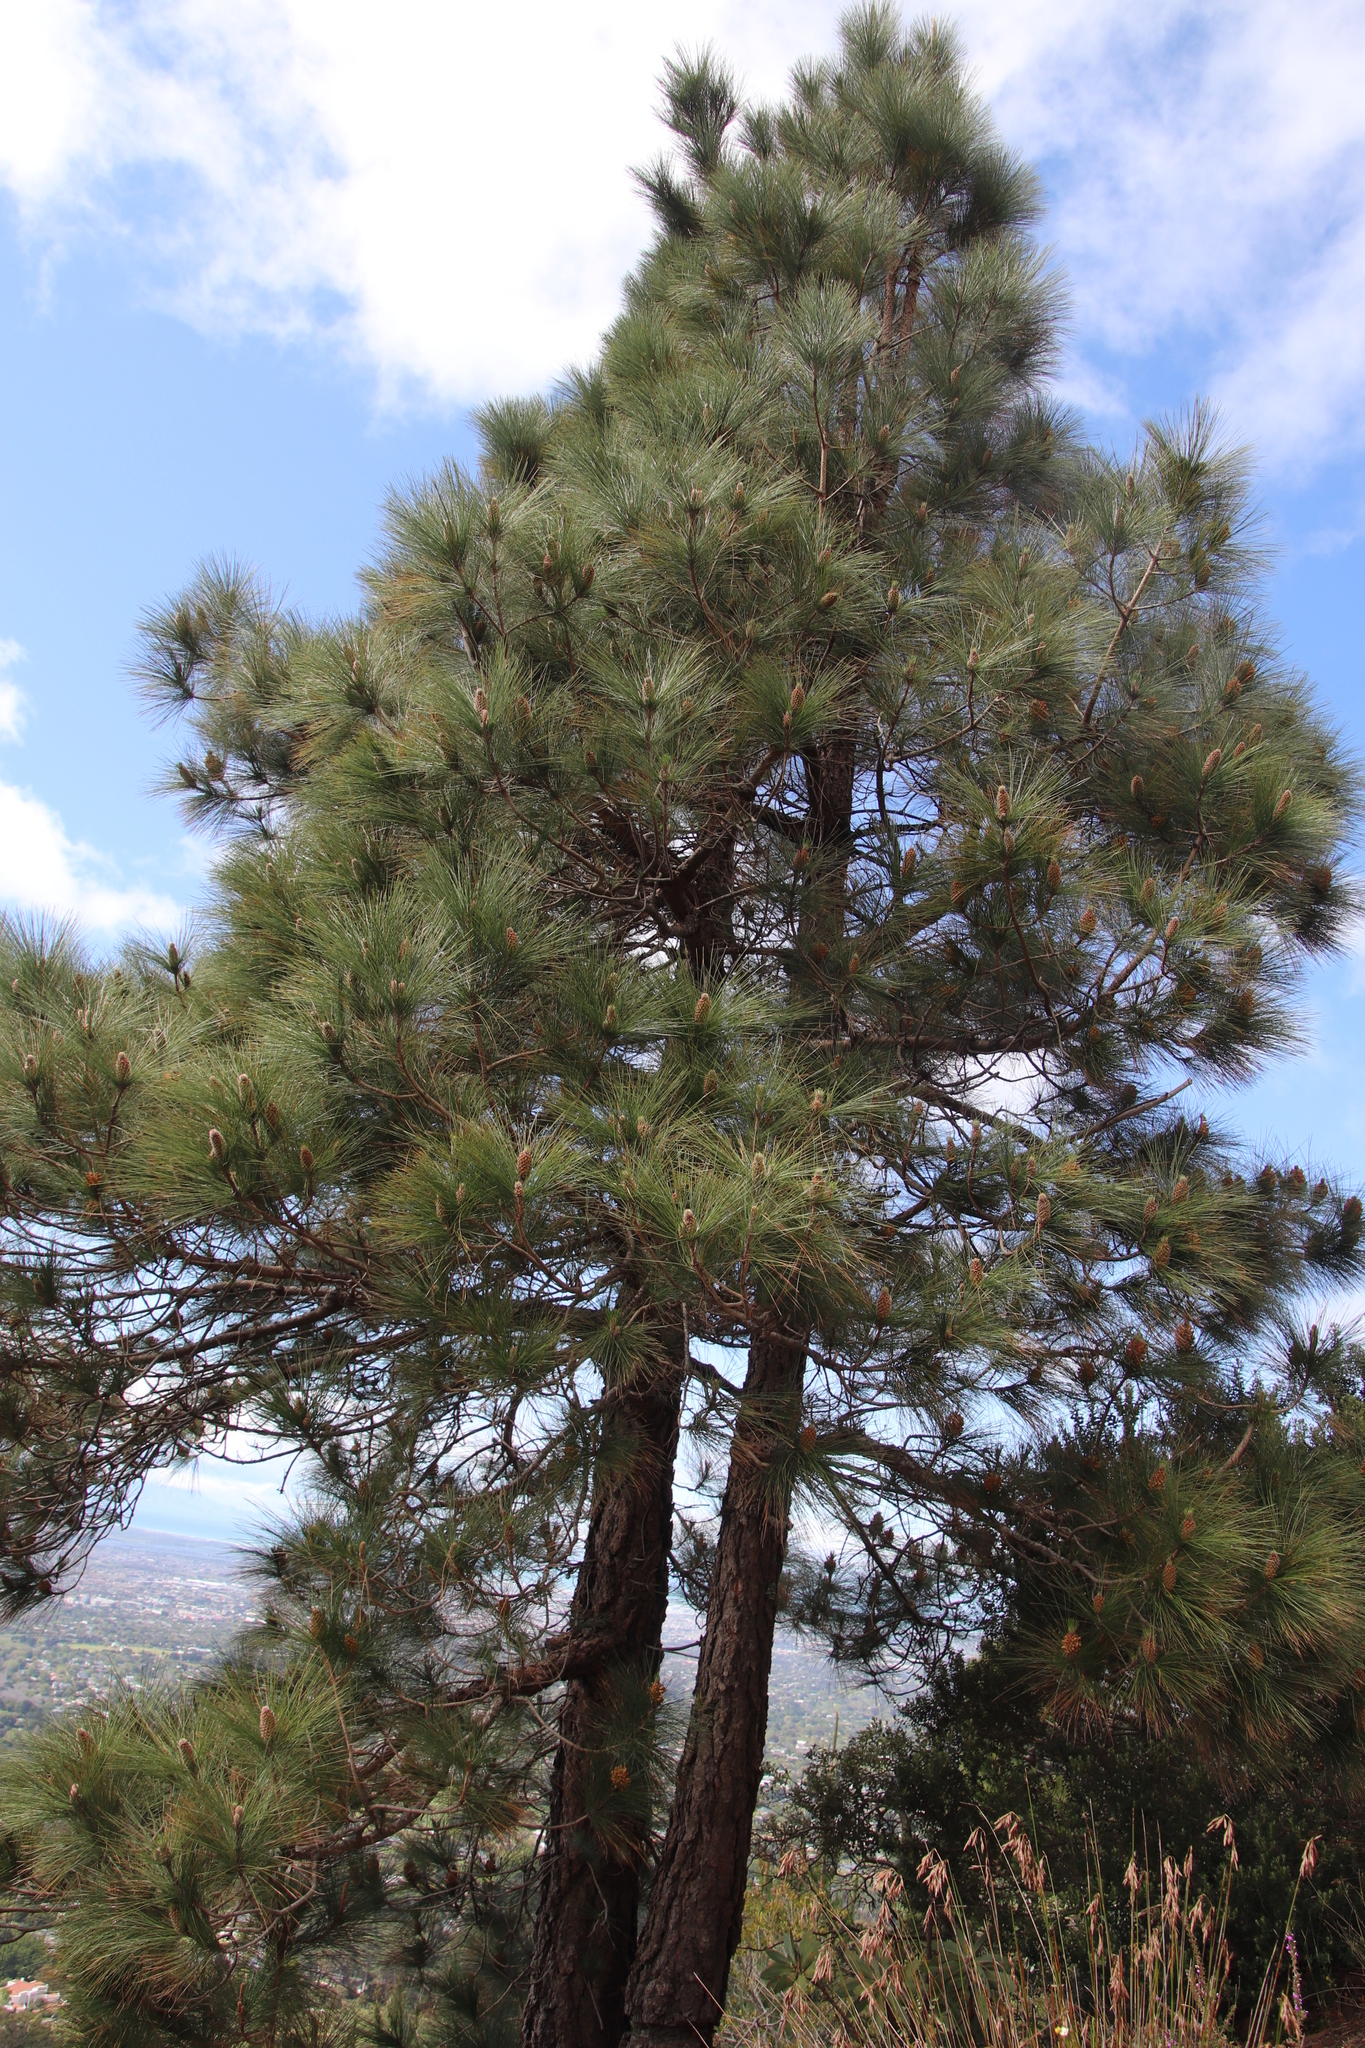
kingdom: Plantae
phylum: Tracheophyta
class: Pinopsida
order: Pinales
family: Pinaceae
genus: Pinus
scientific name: Pinus canariensis
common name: Canary islands pine
